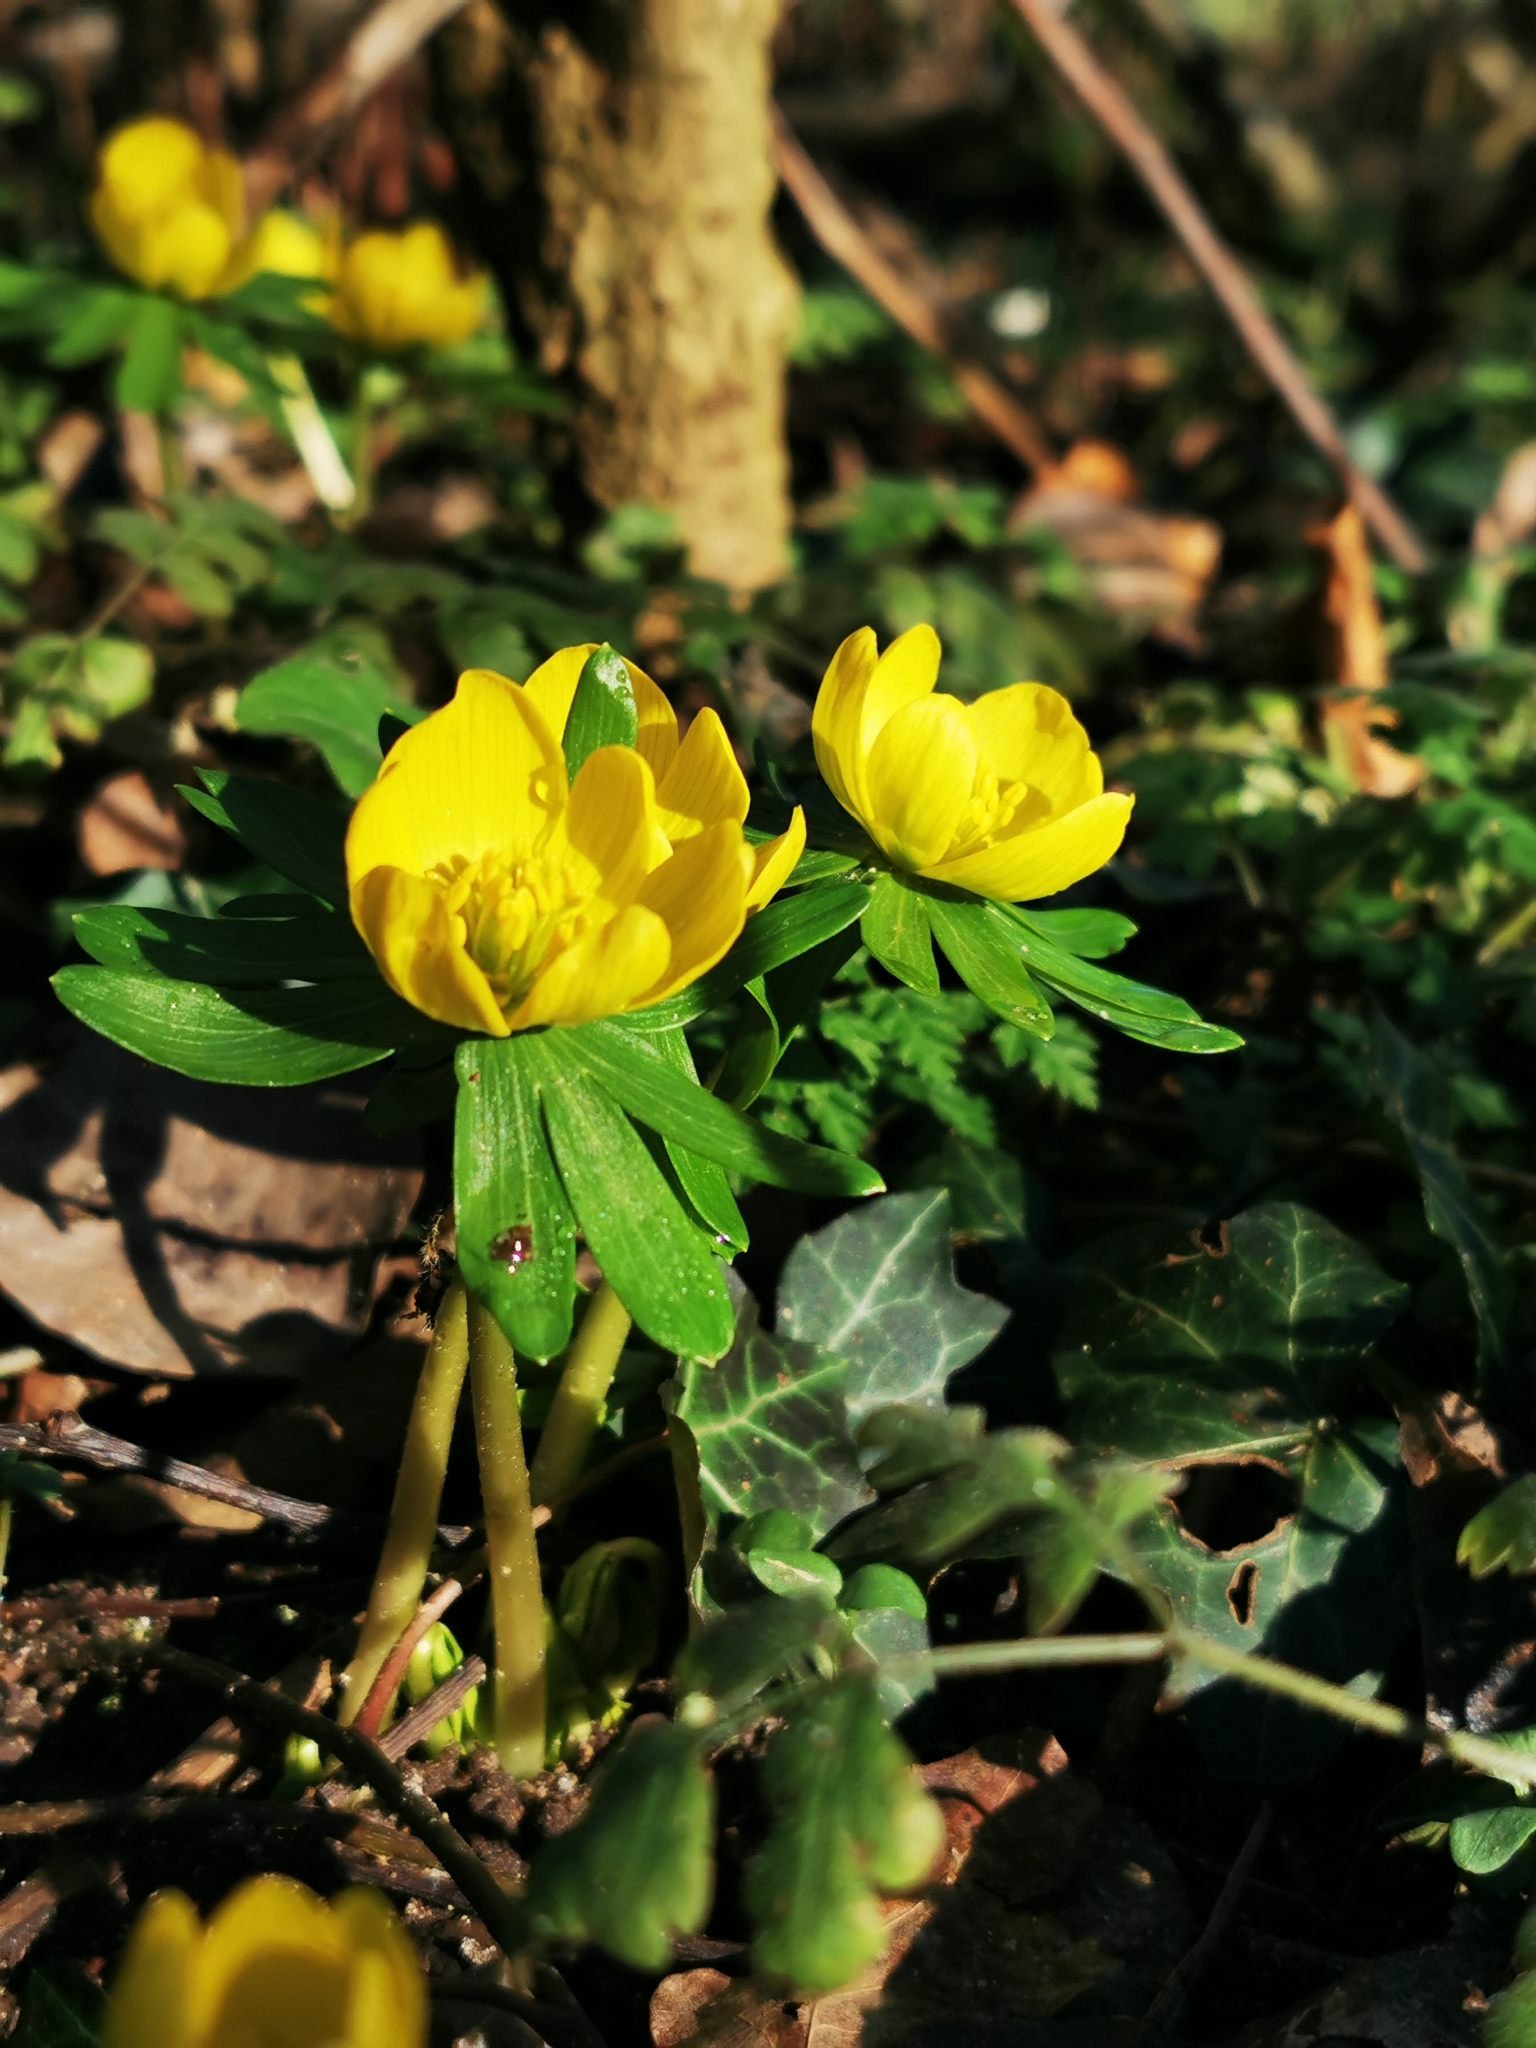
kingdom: Plantae
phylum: Tracheophyta
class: Magnoliopsida
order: Ranunculales
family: Ranunculaceae
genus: Eranthis
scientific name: Eranthis hyemalis
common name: Winter aconite
